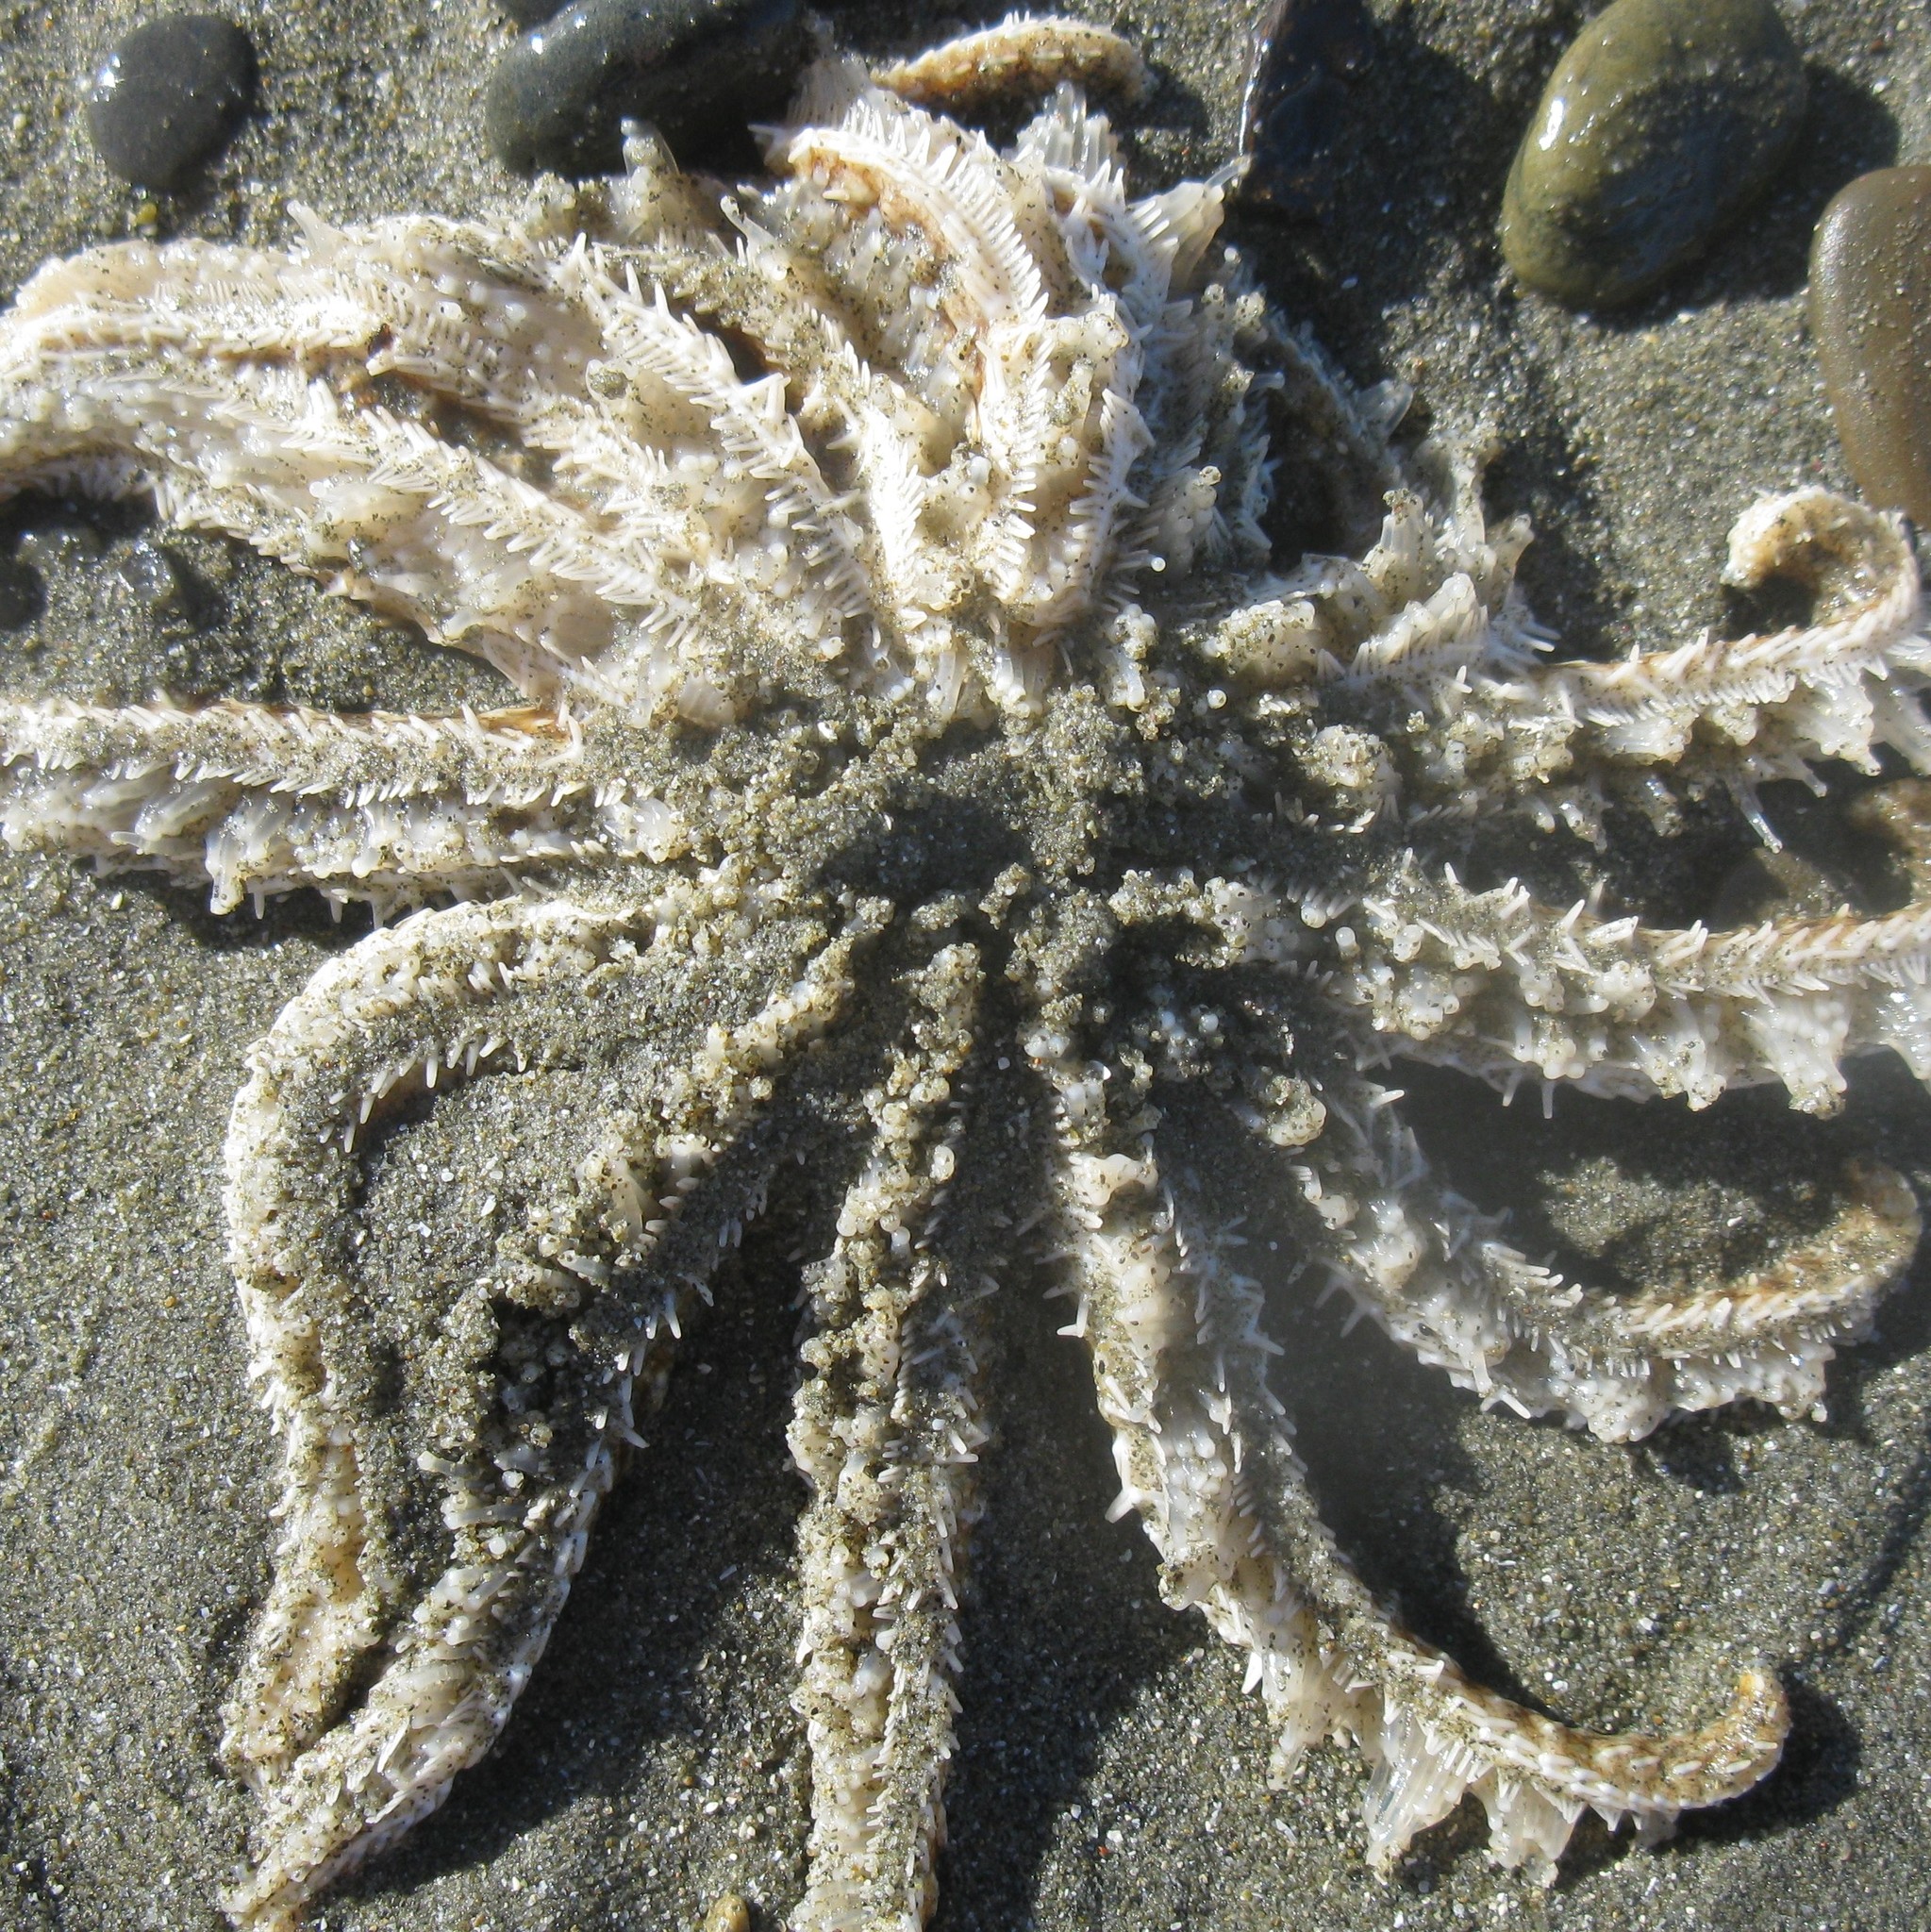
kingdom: Animalia
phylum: Echinodermata
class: Asteroidea
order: Forcipulatida
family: Asteriidae
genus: Coscinasterias
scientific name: Coscinasterias muricata
